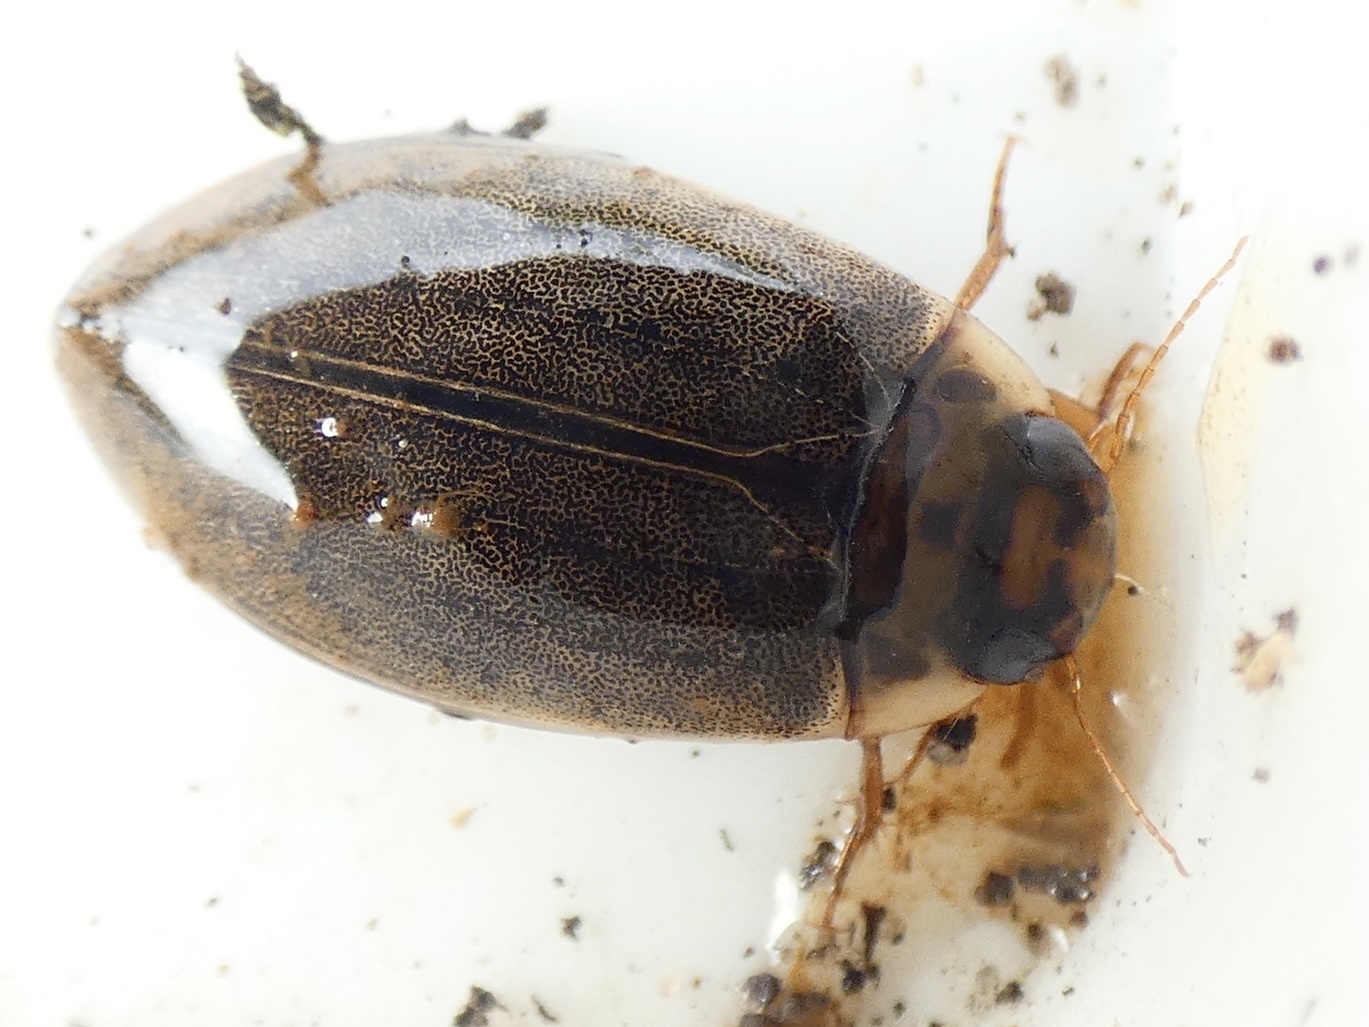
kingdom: Animalia
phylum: Arthropoda
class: Insecta
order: Coleoptera
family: Dytiscidae
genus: Rhantus
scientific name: Rhantus suturalis
